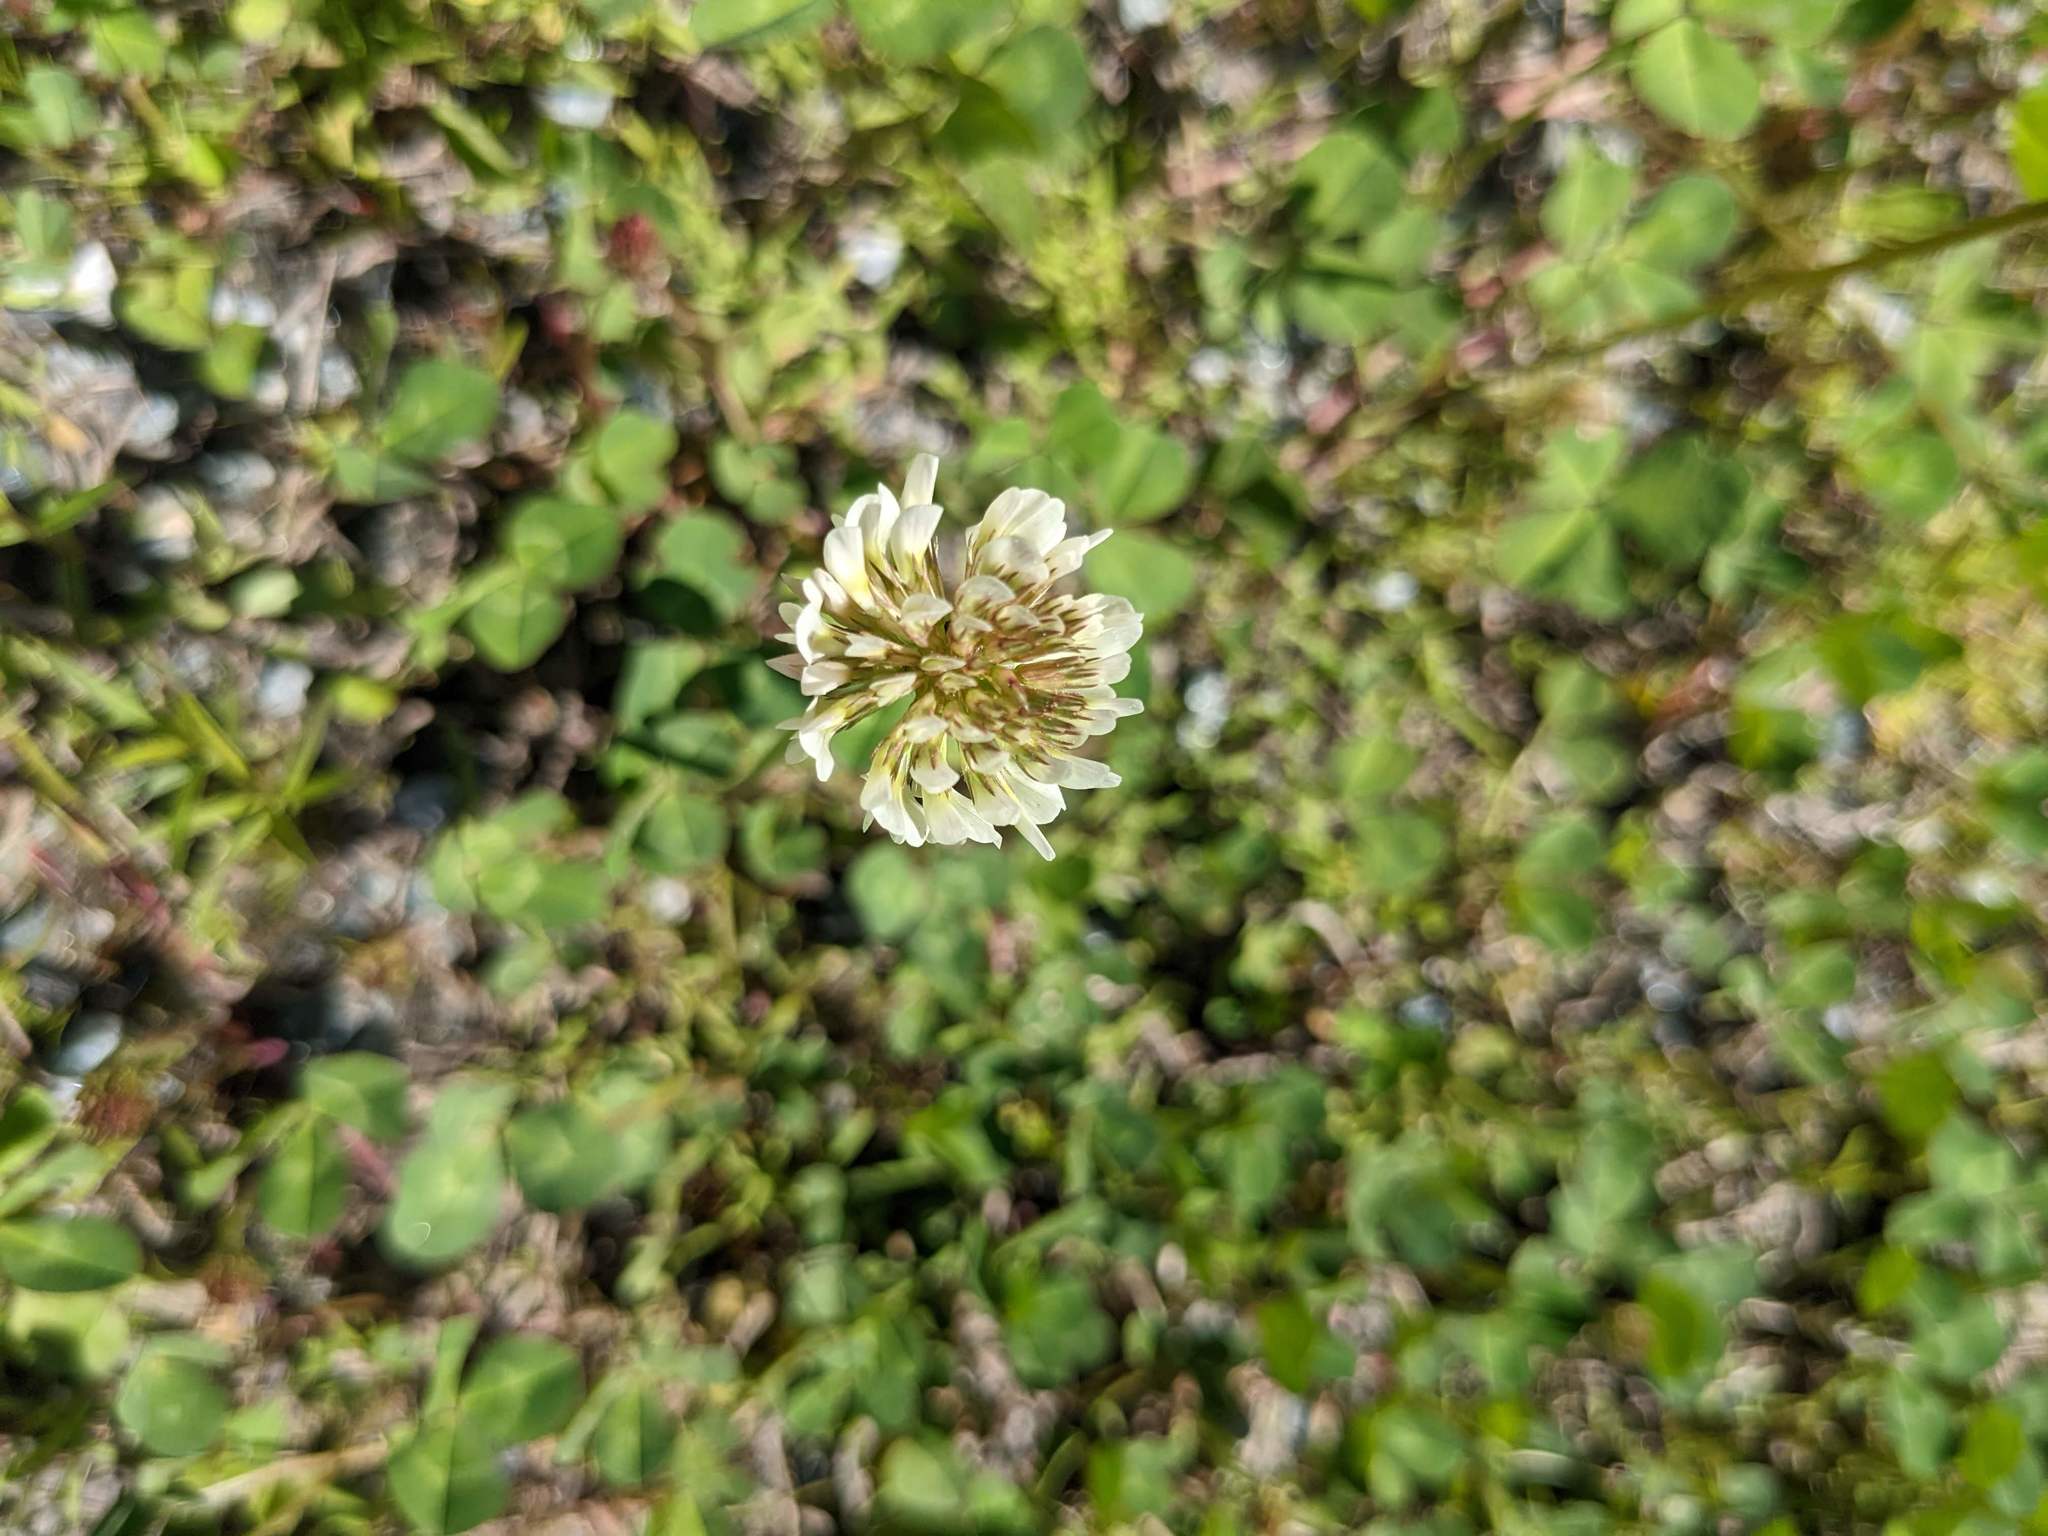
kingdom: Plantae
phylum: Tracheophyta
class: Magnoliopsida
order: Fabales
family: Fabaceae
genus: Trifolium
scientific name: Trifolium repens
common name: White clover
